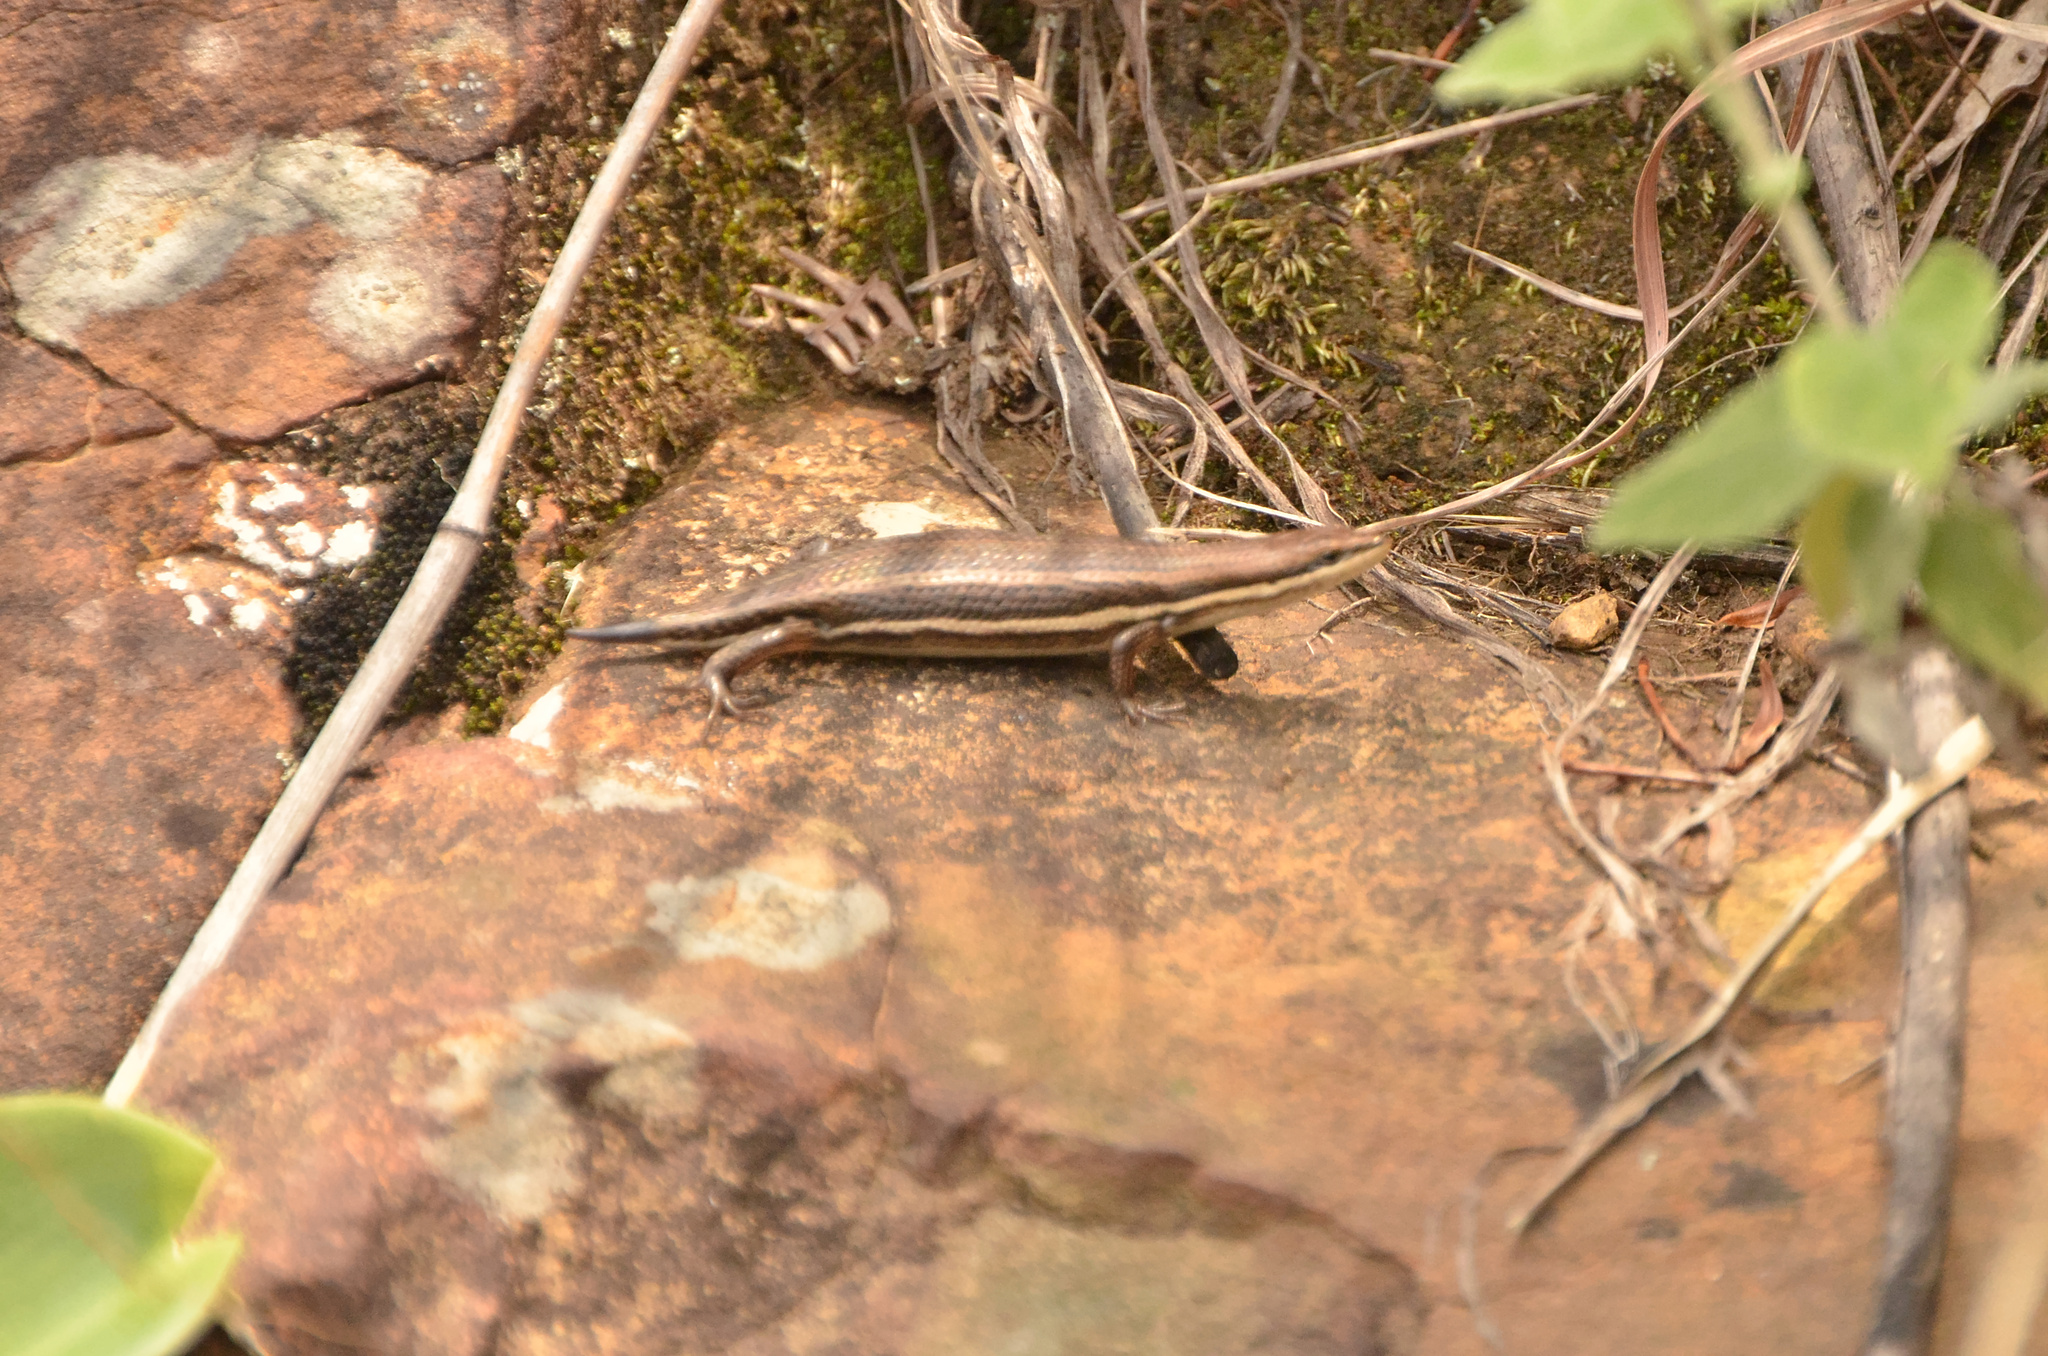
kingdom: Animalia
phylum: Chordata
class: Squamata
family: Scincidae
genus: Trachylepis
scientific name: Trachylepis varia
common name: Eastern variable skink
